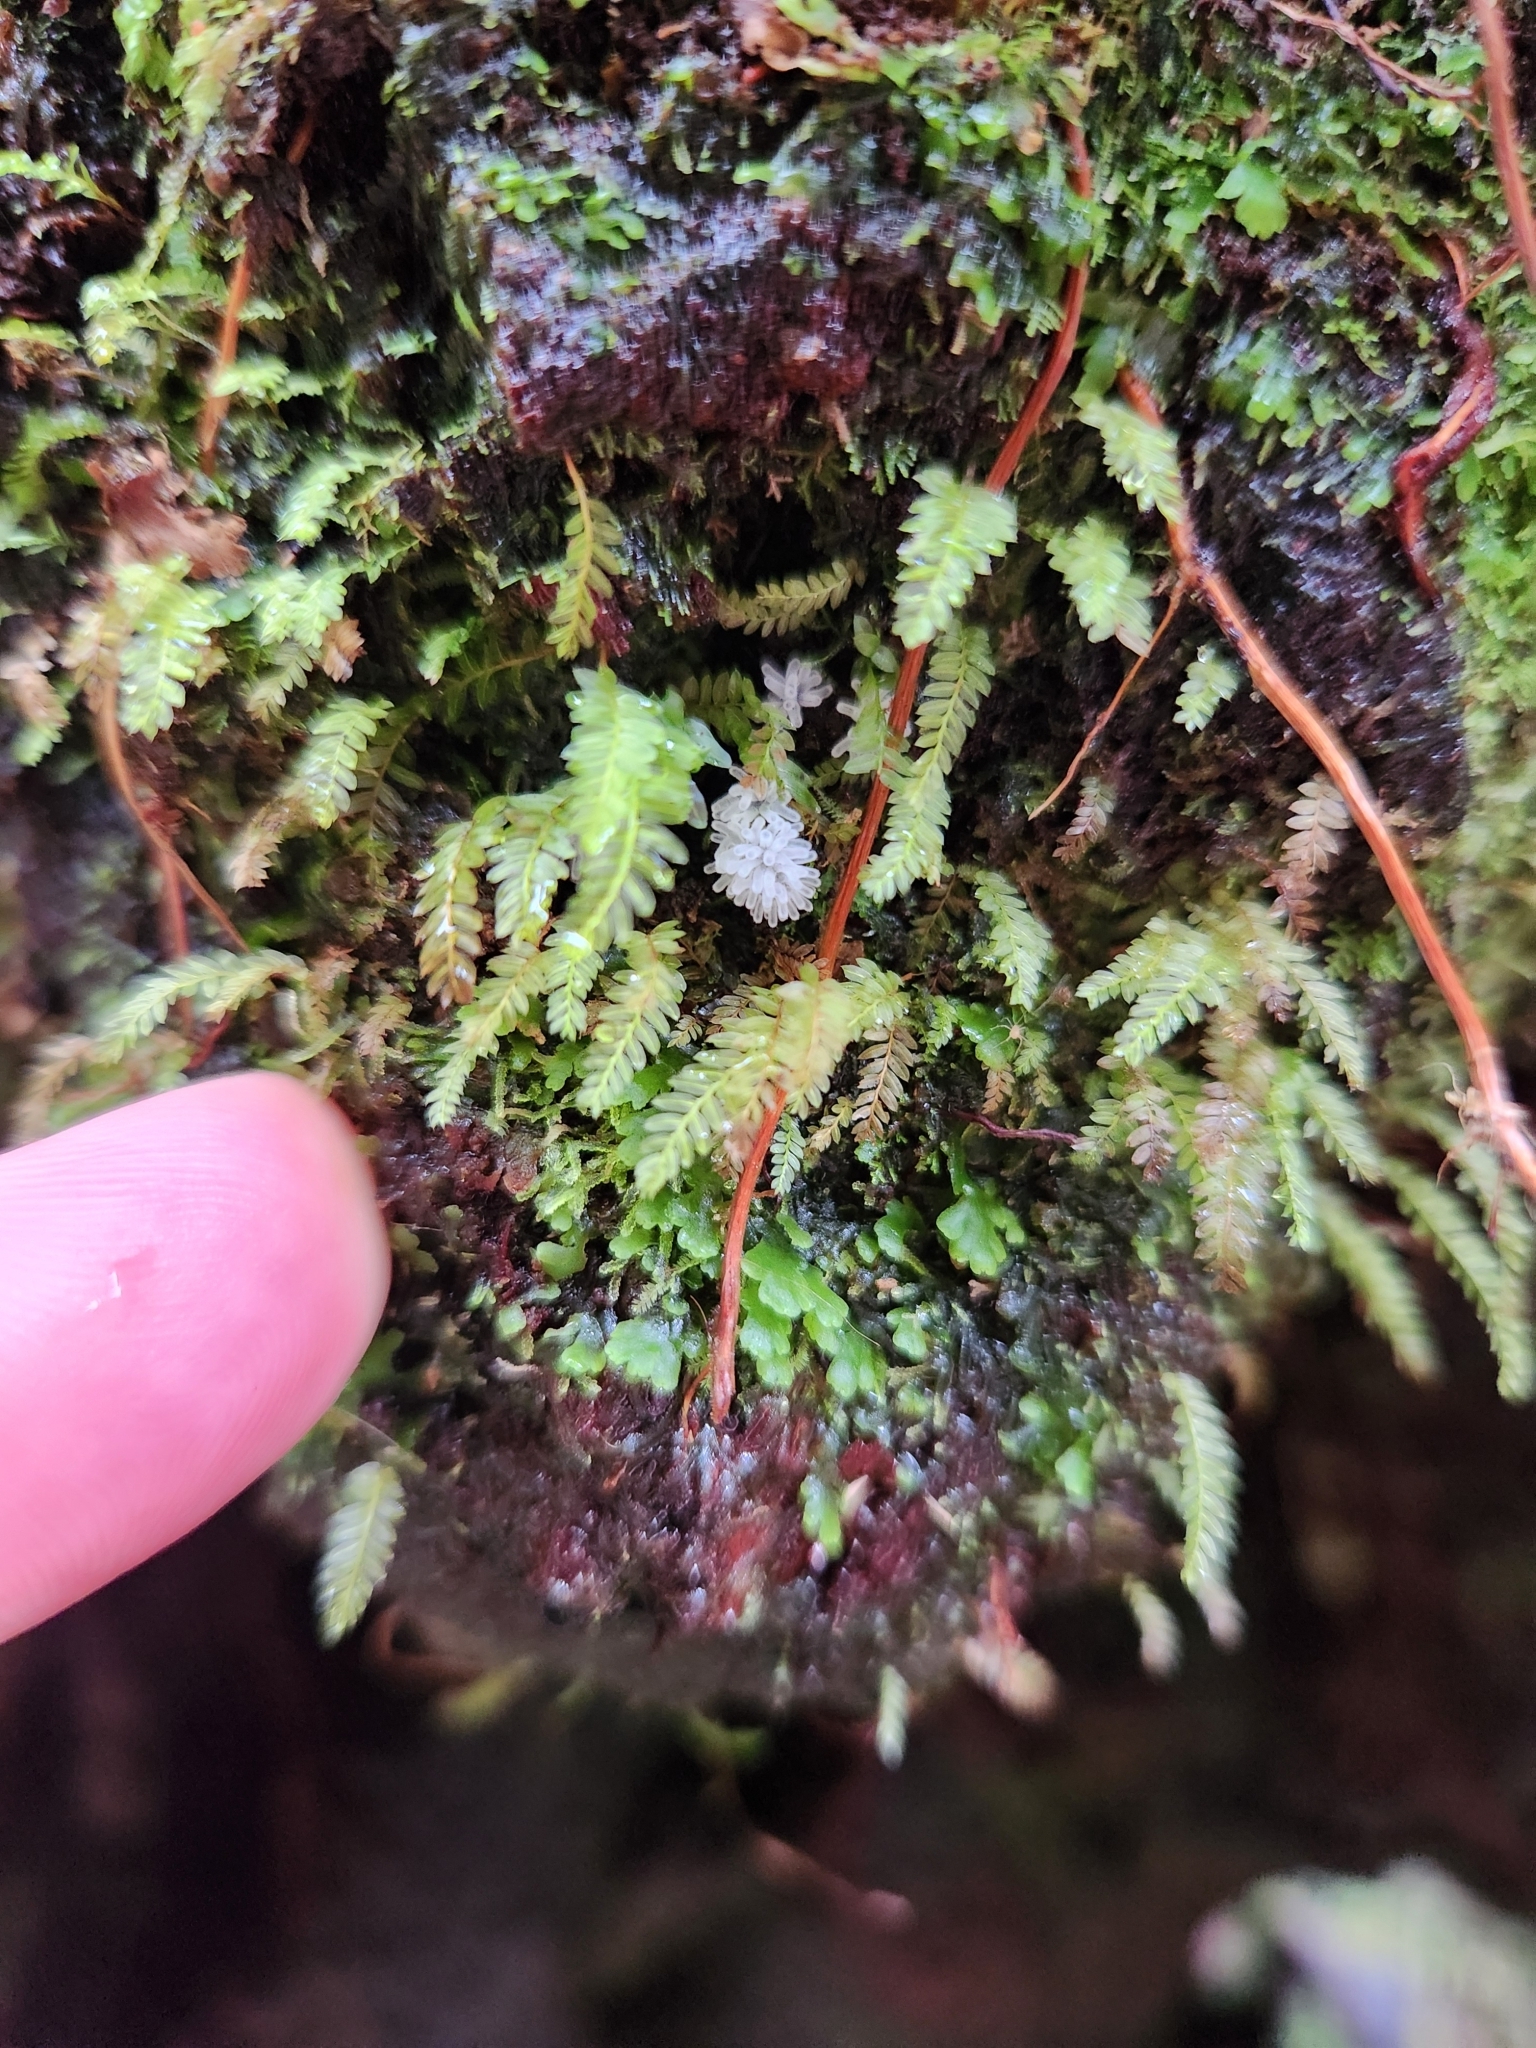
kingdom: Protozoa
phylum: Mycetozoa
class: Protosteliomycetes
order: Ceratiomyxales
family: Ceratiomyxaceae
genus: Ceratiomyxa
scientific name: Ceratiomyxa fruticulosa
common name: Honeycomb coral slime mold
